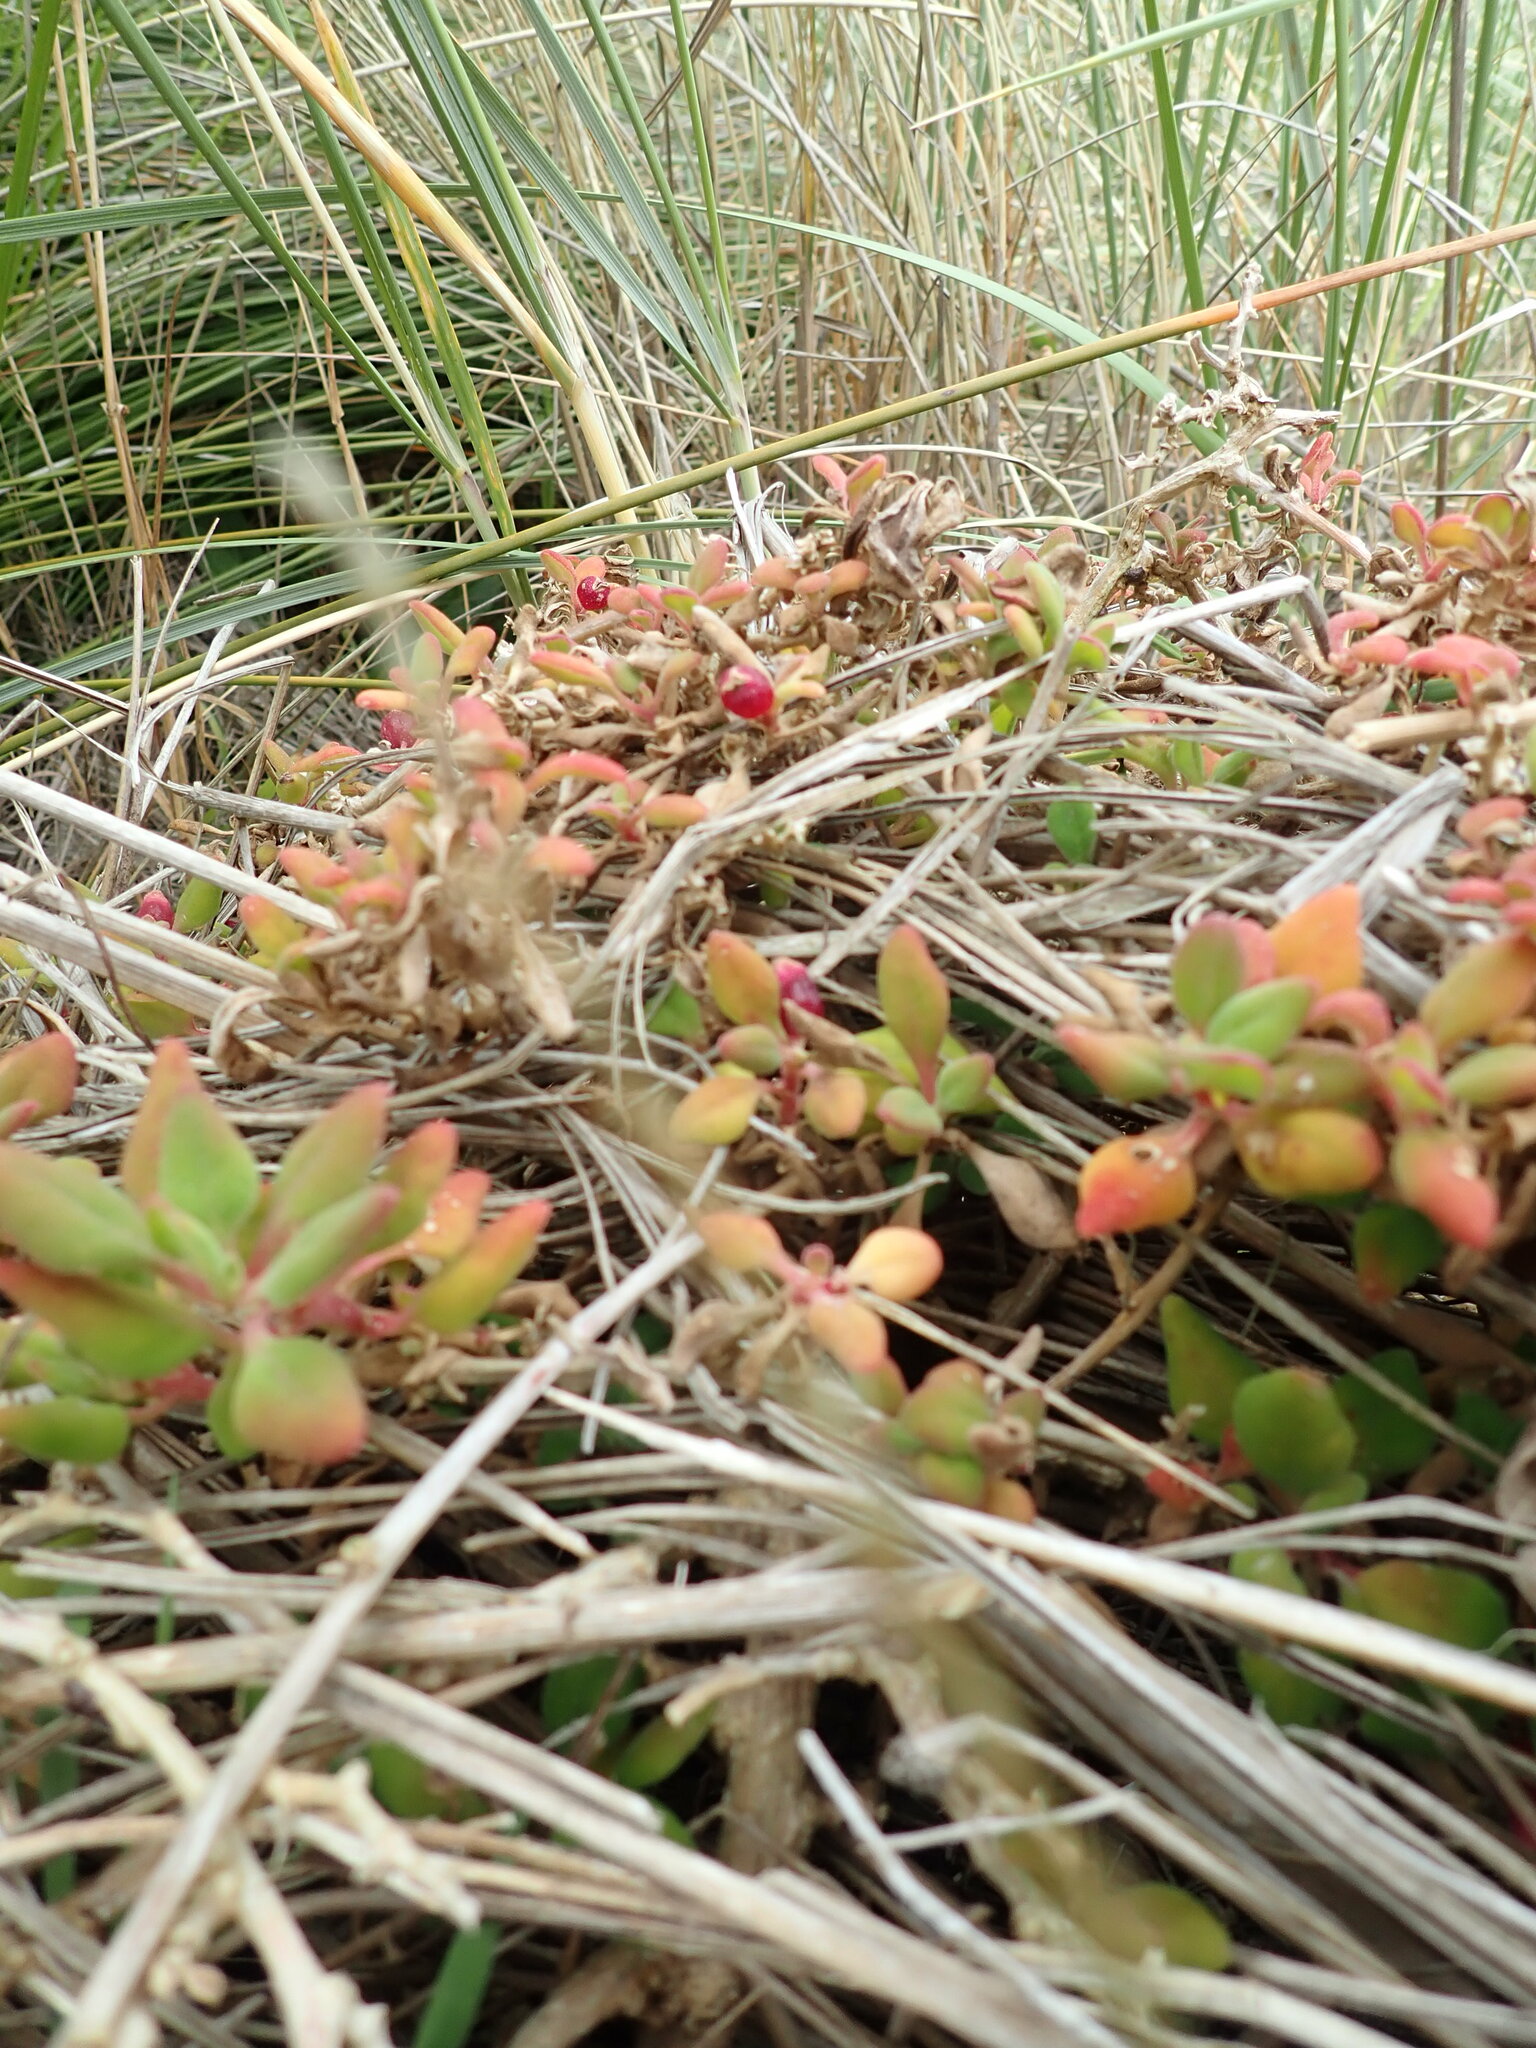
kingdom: Plantae
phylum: Tracheophyta
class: Magnoliopsida
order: Caryophyllales
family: Aizoaceae
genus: Tetragonia
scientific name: Tetragonia implexicoma
